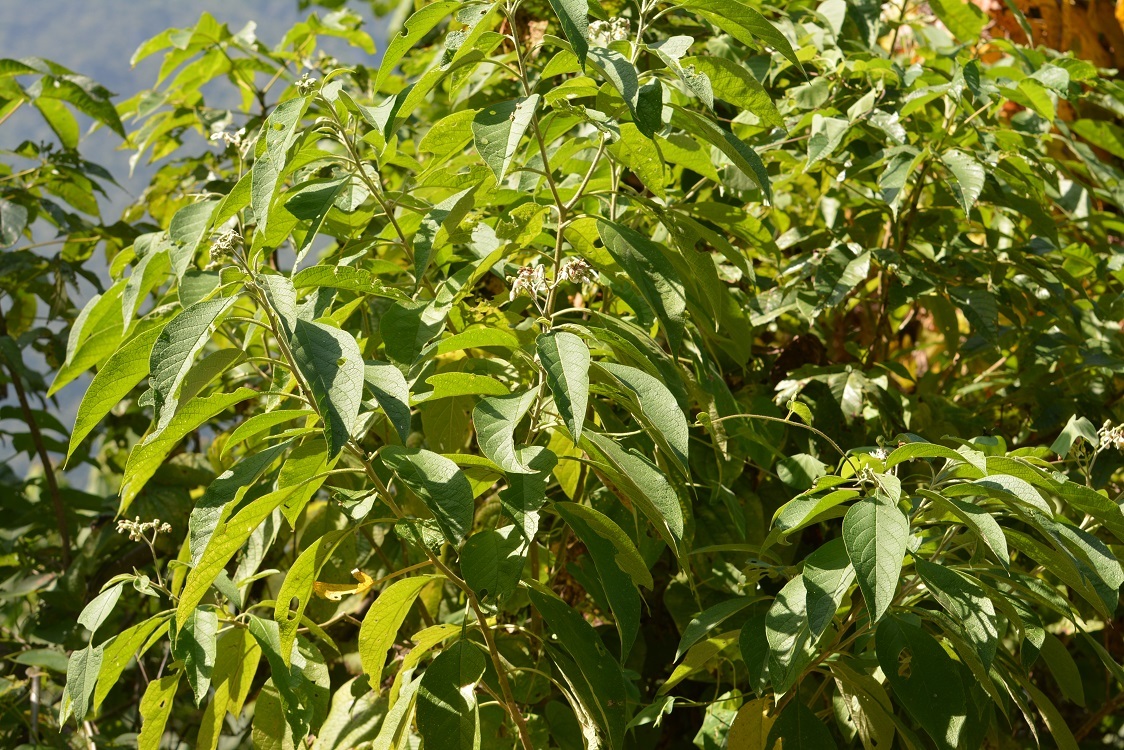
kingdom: Plantae
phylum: Tracheophyta
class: Magnoliopsida
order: Solanales
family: Solanaceae
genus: Solanum
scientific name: Solanum umbellatum
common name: Nightshade
